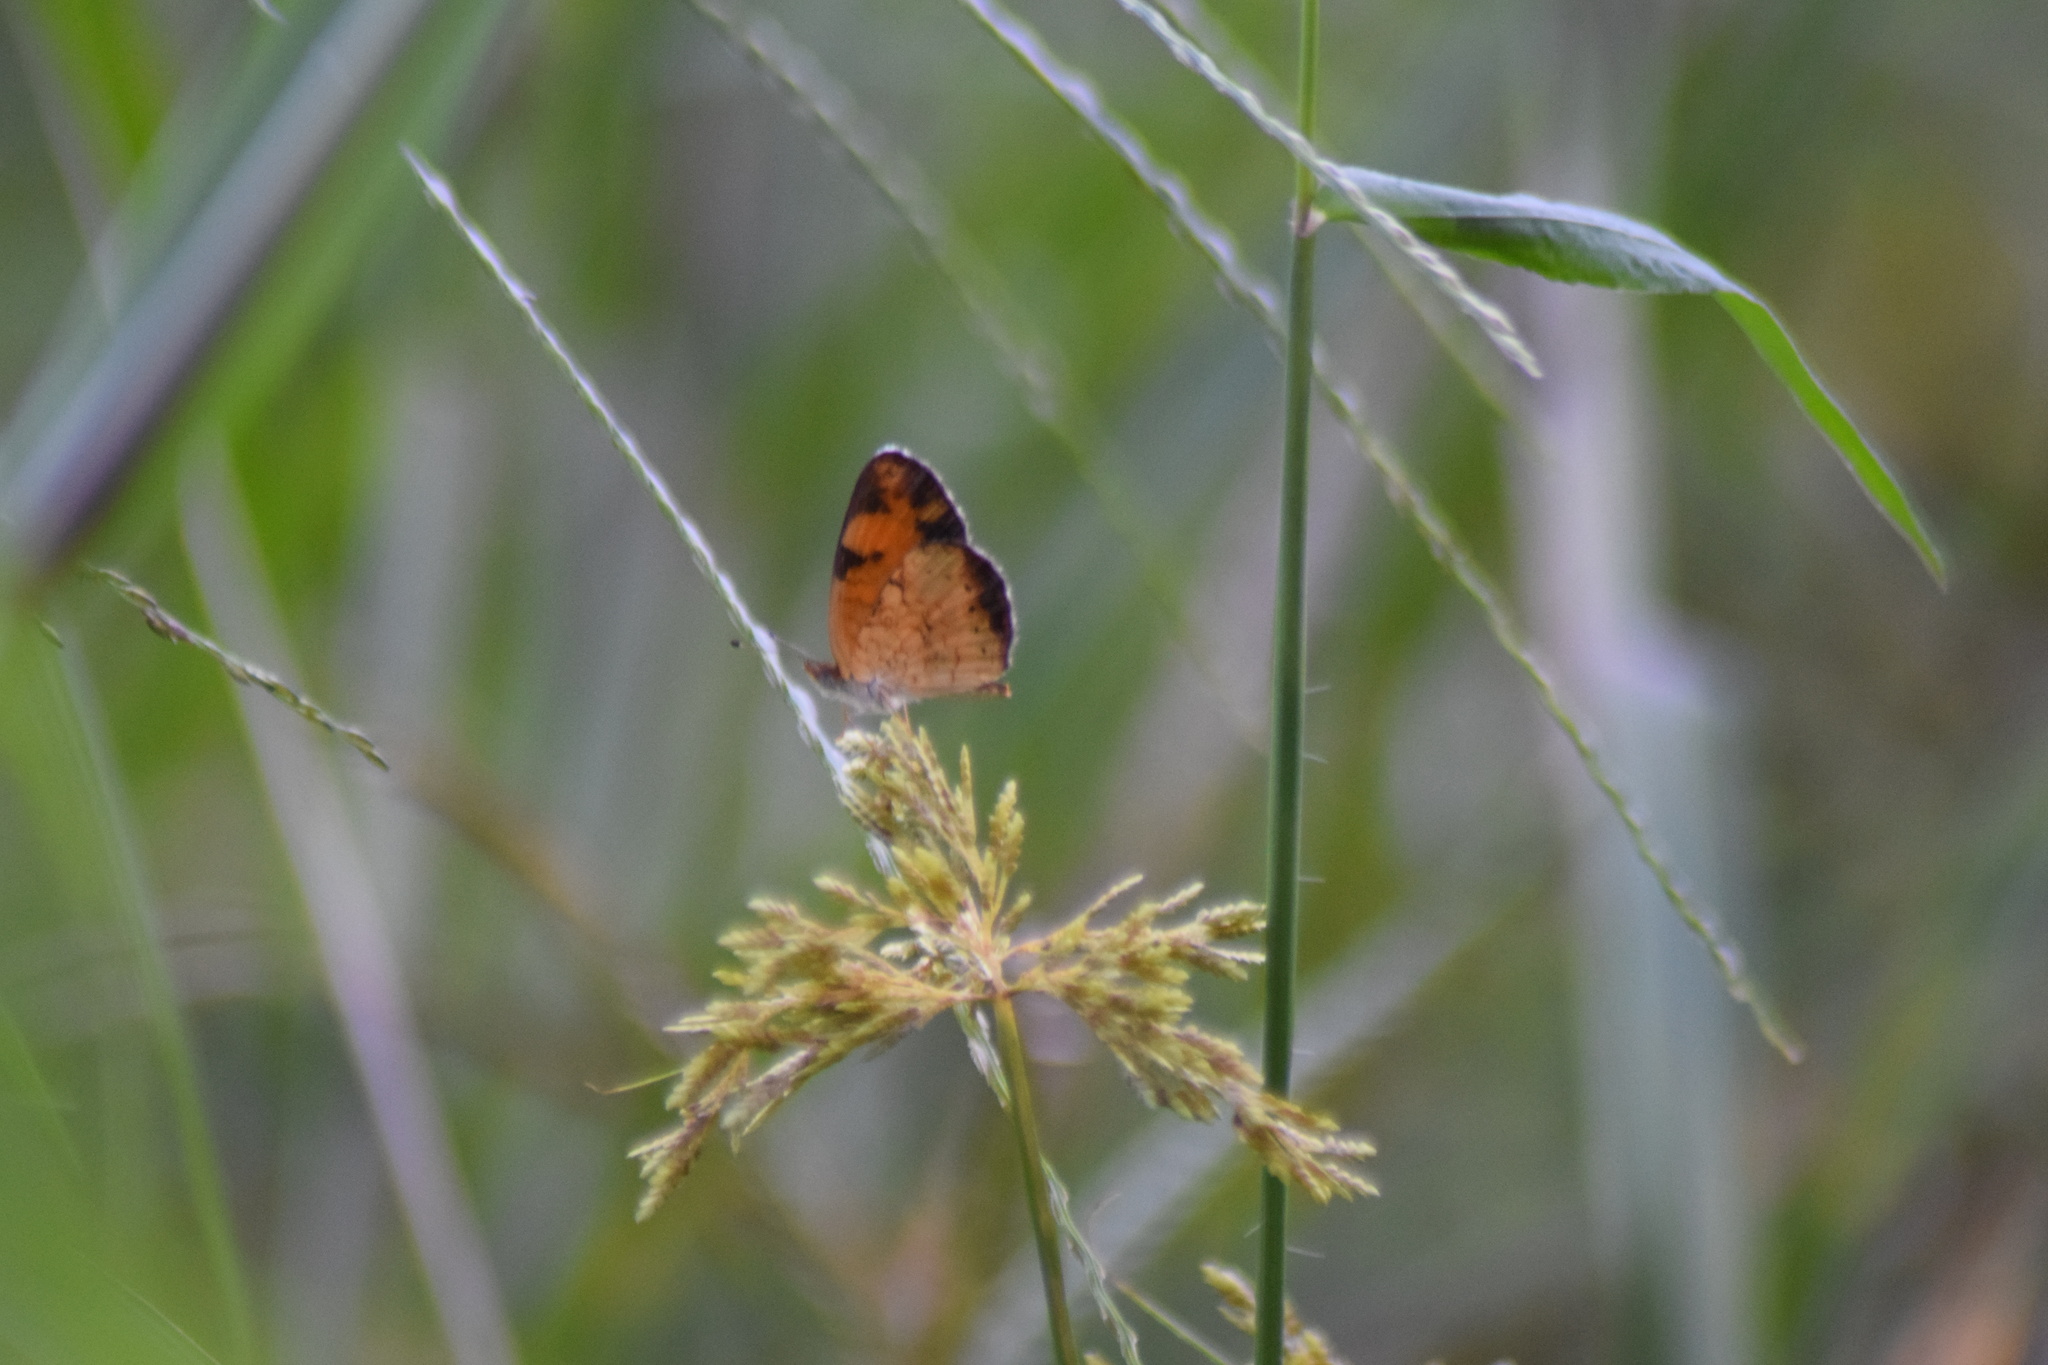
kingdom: Animalia
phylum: Arthropoda
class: Insecta
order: Lepidoptera
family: Nymphalidae
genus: Phyciodes
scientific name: Phyciodes tharos
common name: Pearl crescent
